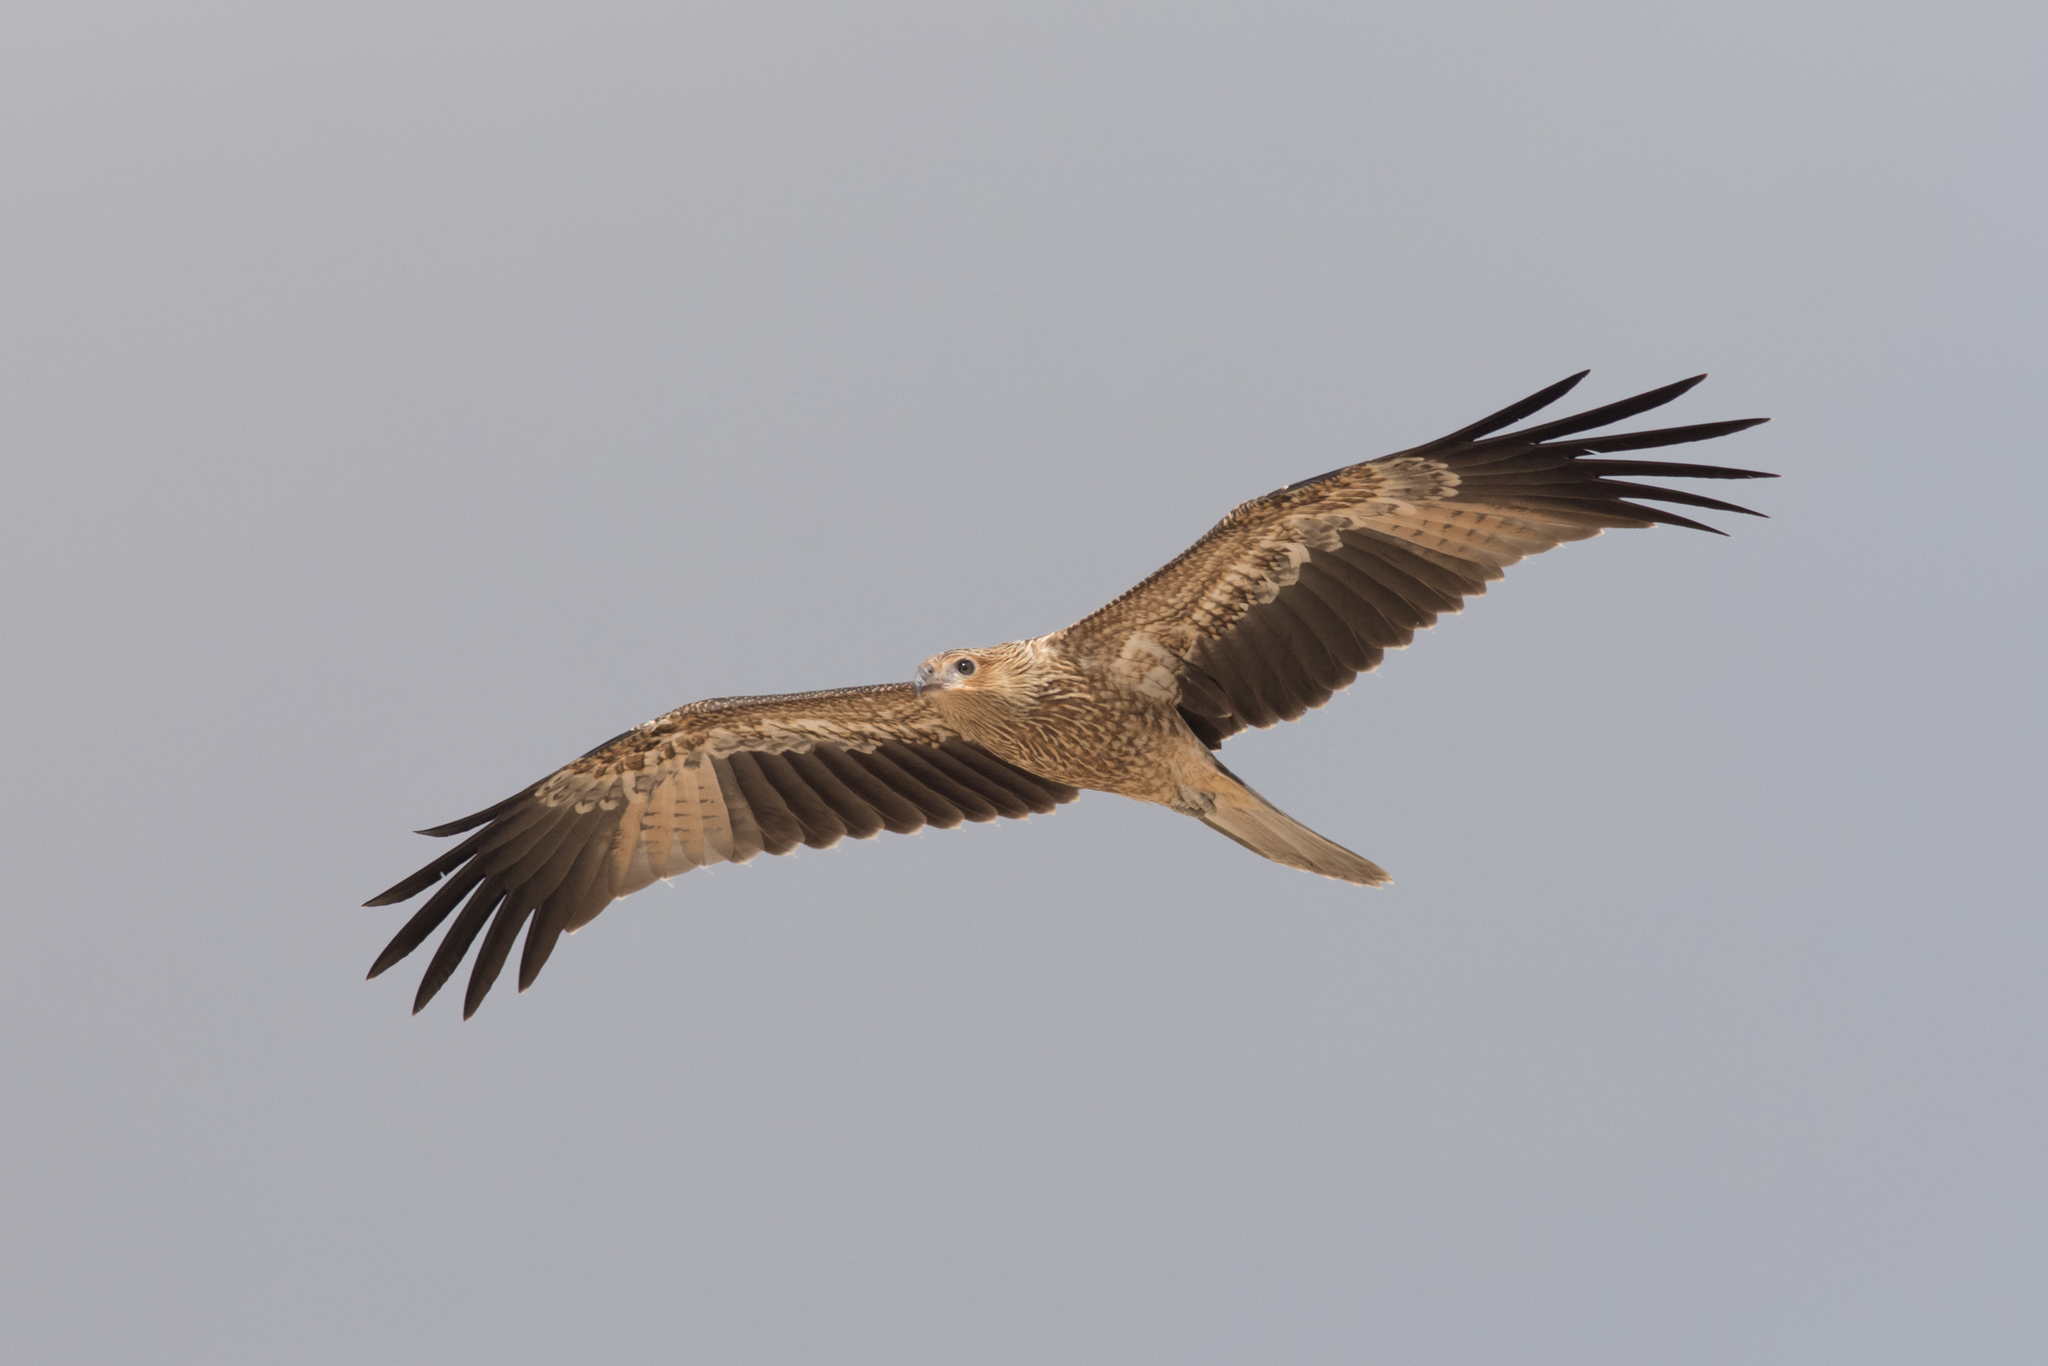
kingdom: Animalia
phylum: Chordata
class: Aves
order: Accipitriformes
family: Accipitridae
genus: Haliastur
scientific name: Haliastur sphenurus
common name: Whistling kite
